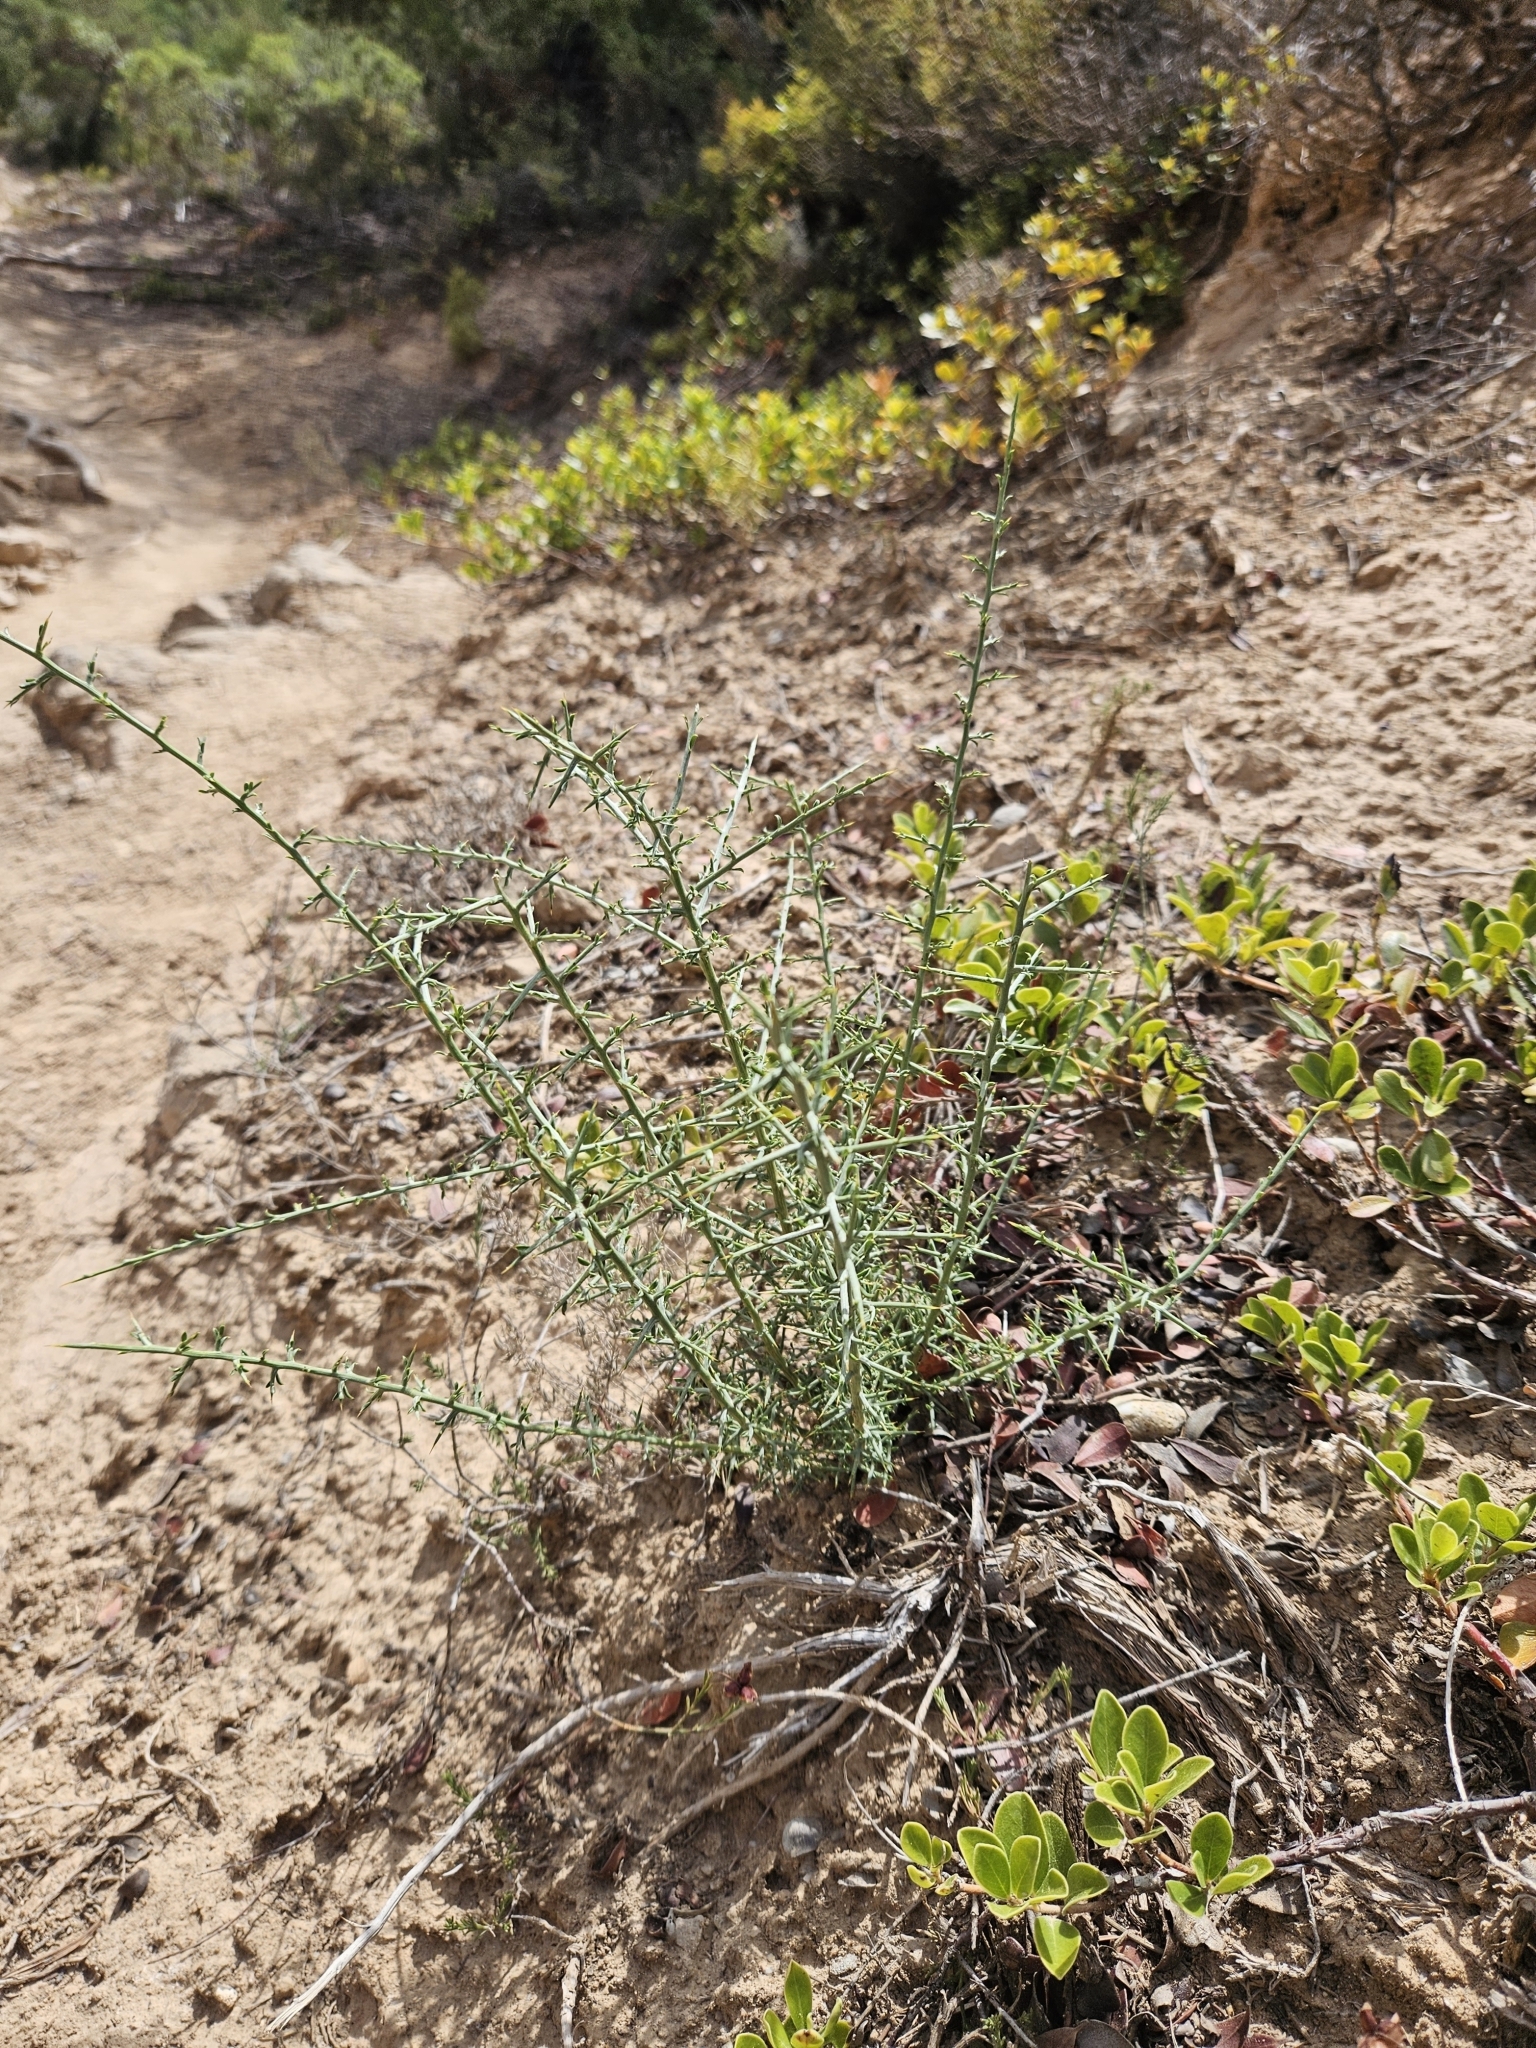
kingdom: Plantae
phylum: Tracheophyta
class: Magnoliopsida
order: Fabales
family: Fabaceae
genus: Genista
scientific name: Genista scorpius
